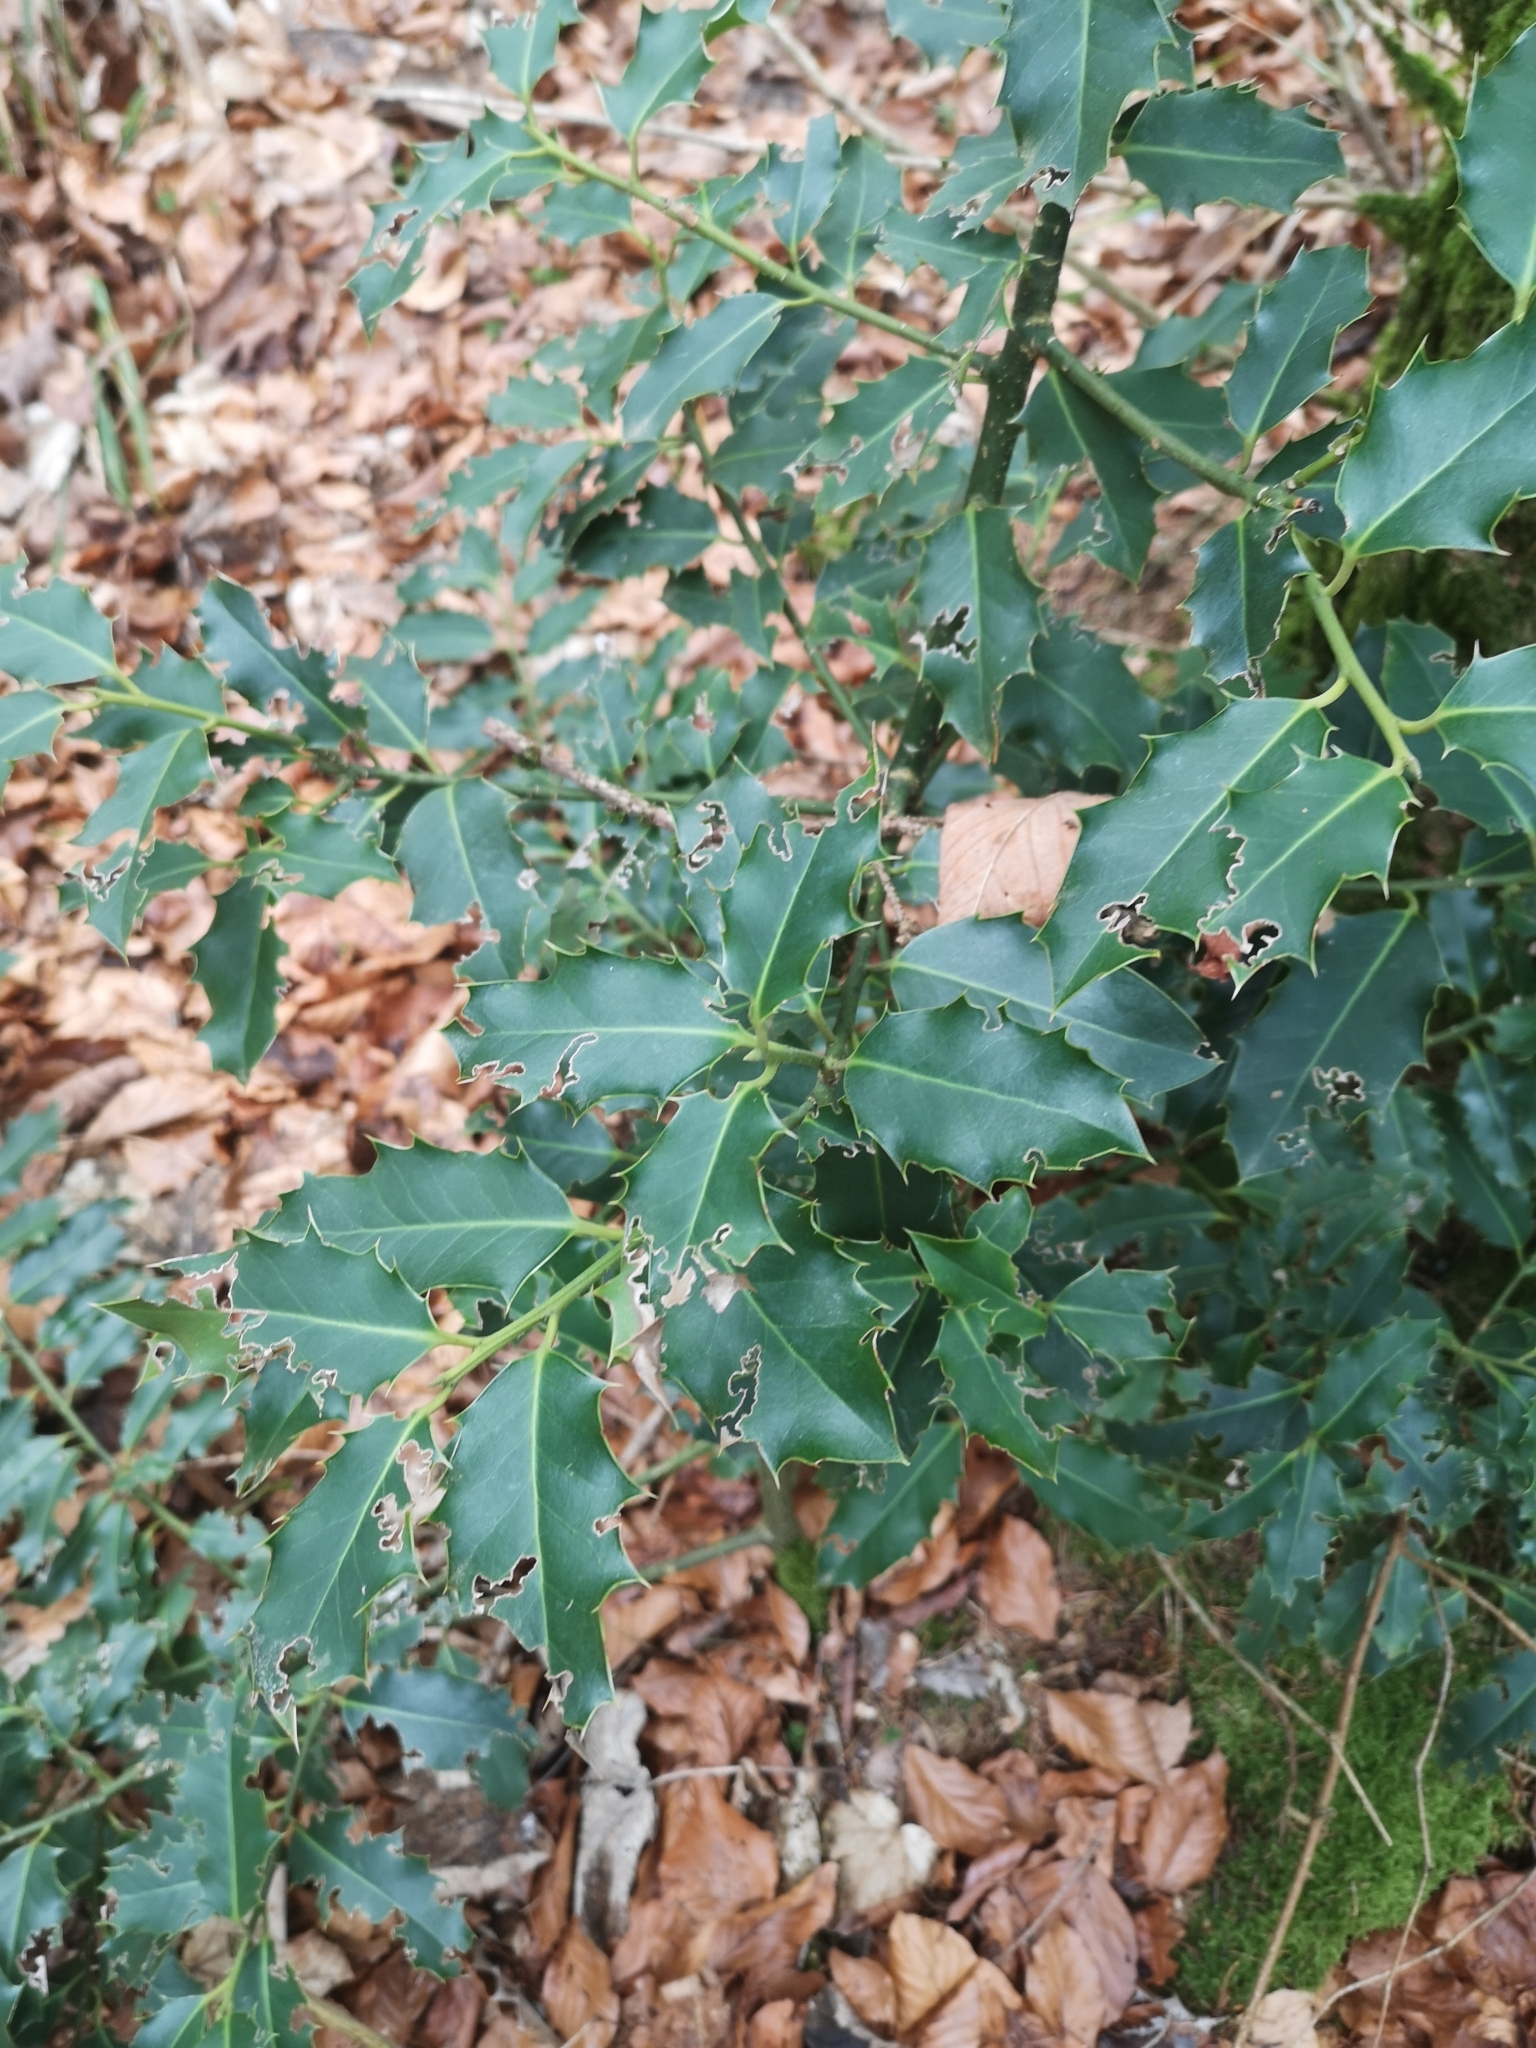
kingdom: Plantae
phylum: Tracheophyta
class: Magnoliopsida
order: Aquifoliales
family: Aquifoliaceae
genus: Ilex
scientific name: Ilex aquifolium
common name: English holly
